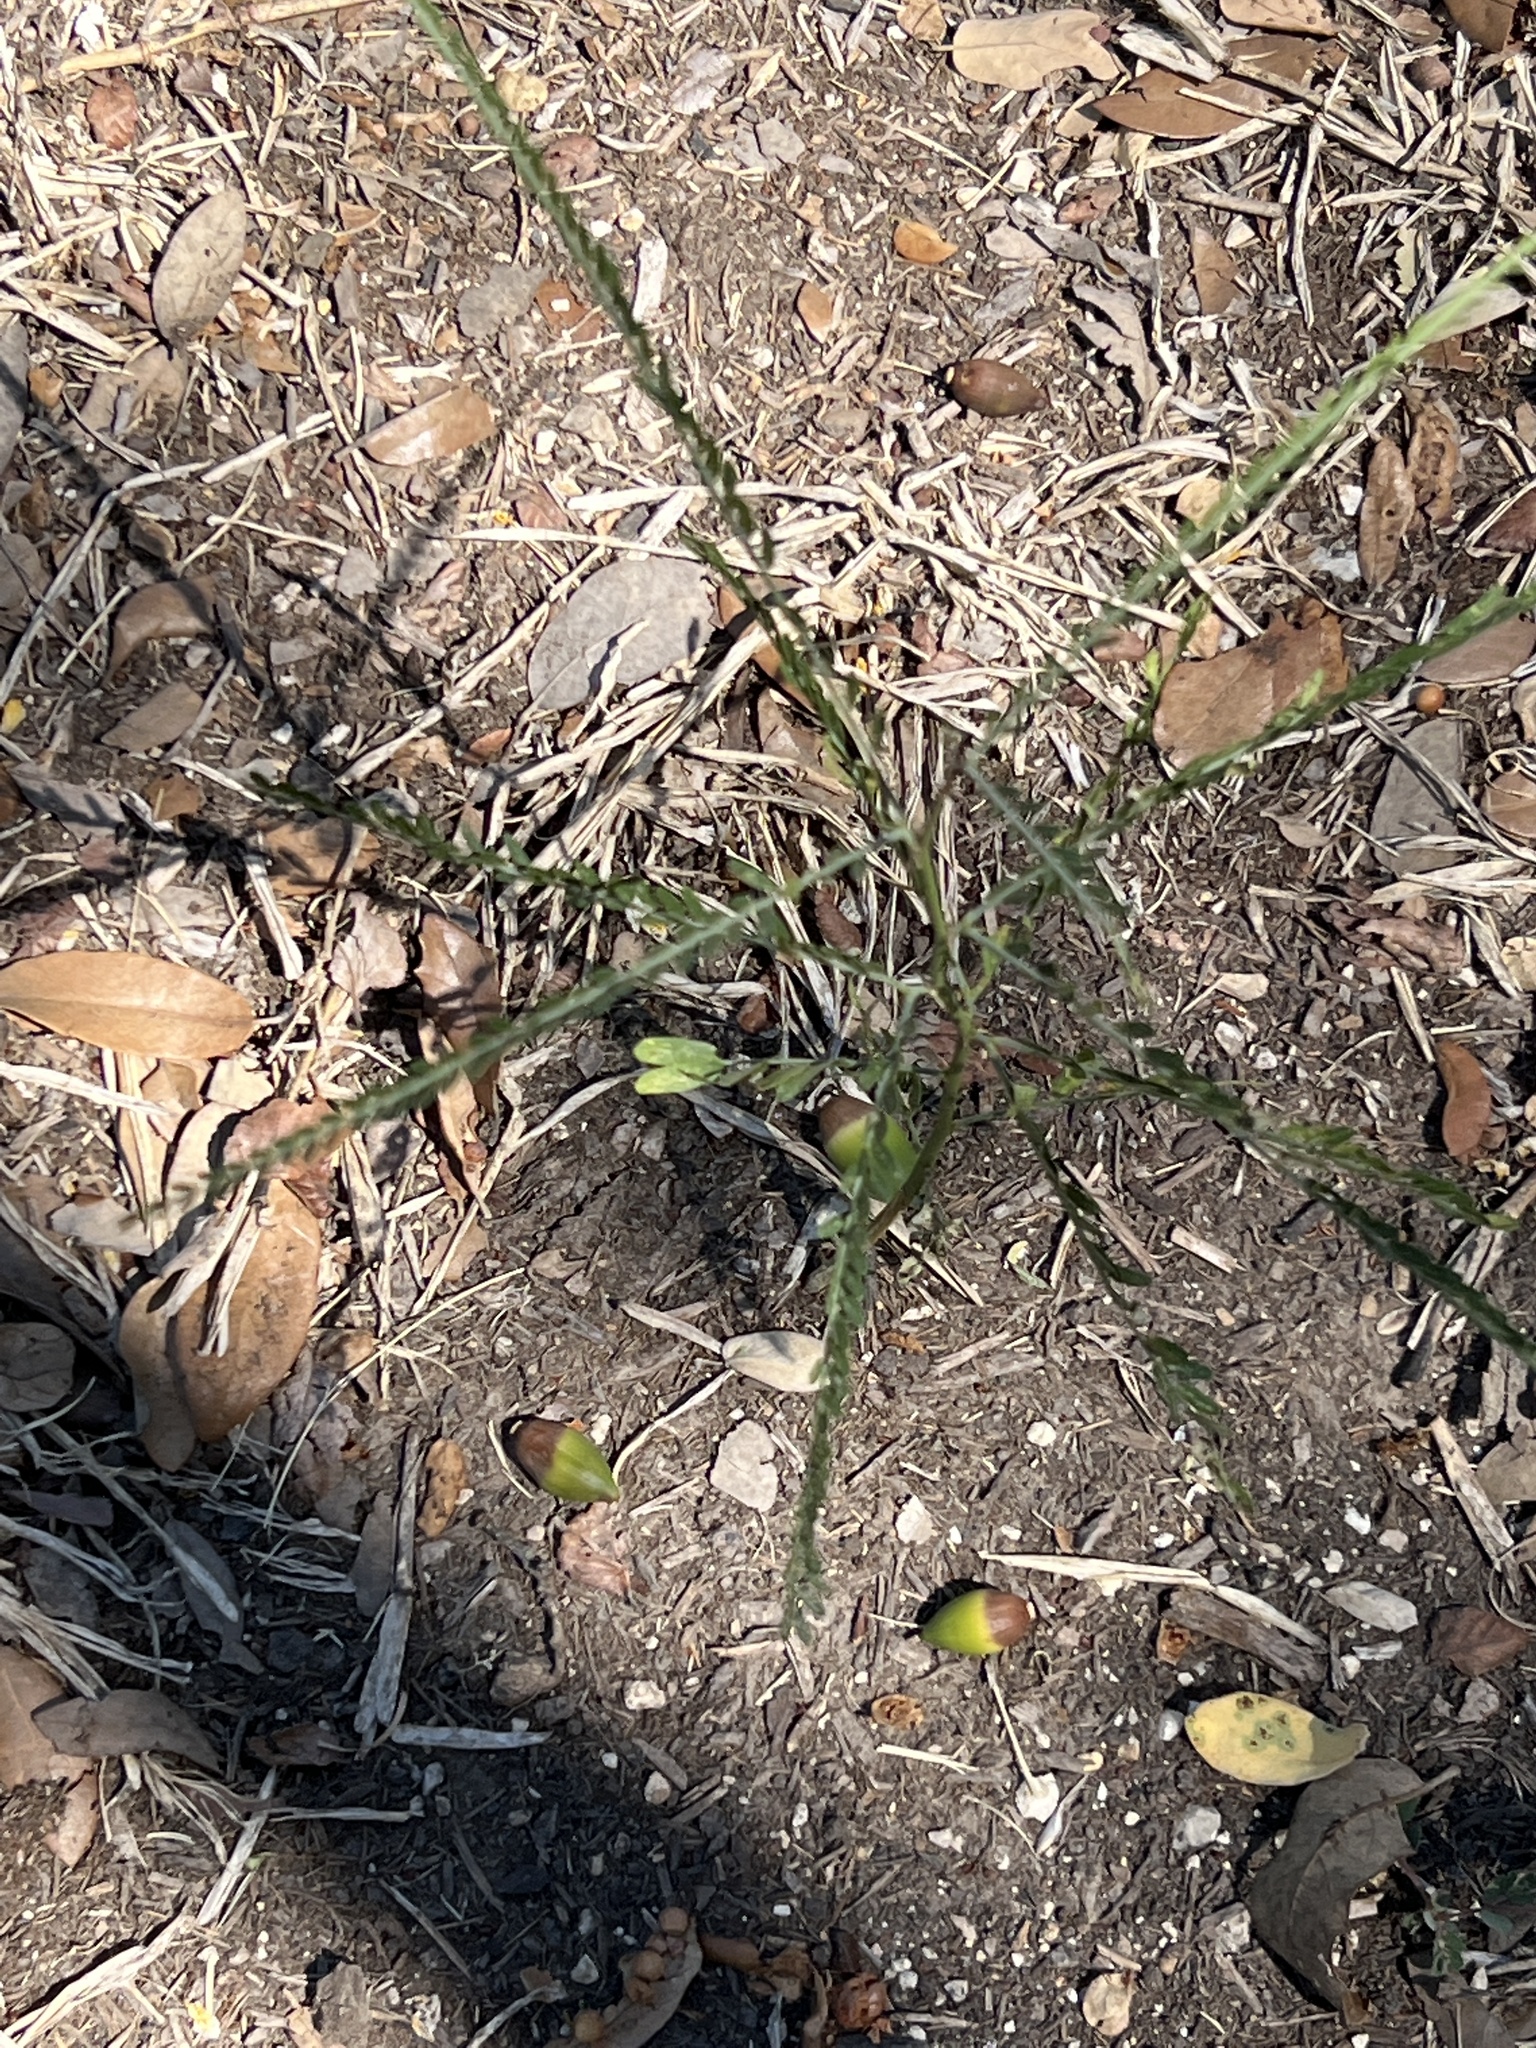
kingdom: Plantae
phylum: Tracheophyta
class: Magnoliopsida
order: Fabales
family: Fabaceae
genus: Parkinsonia
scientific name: Parkinsonia aculeata
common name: Jerusalem thorn
